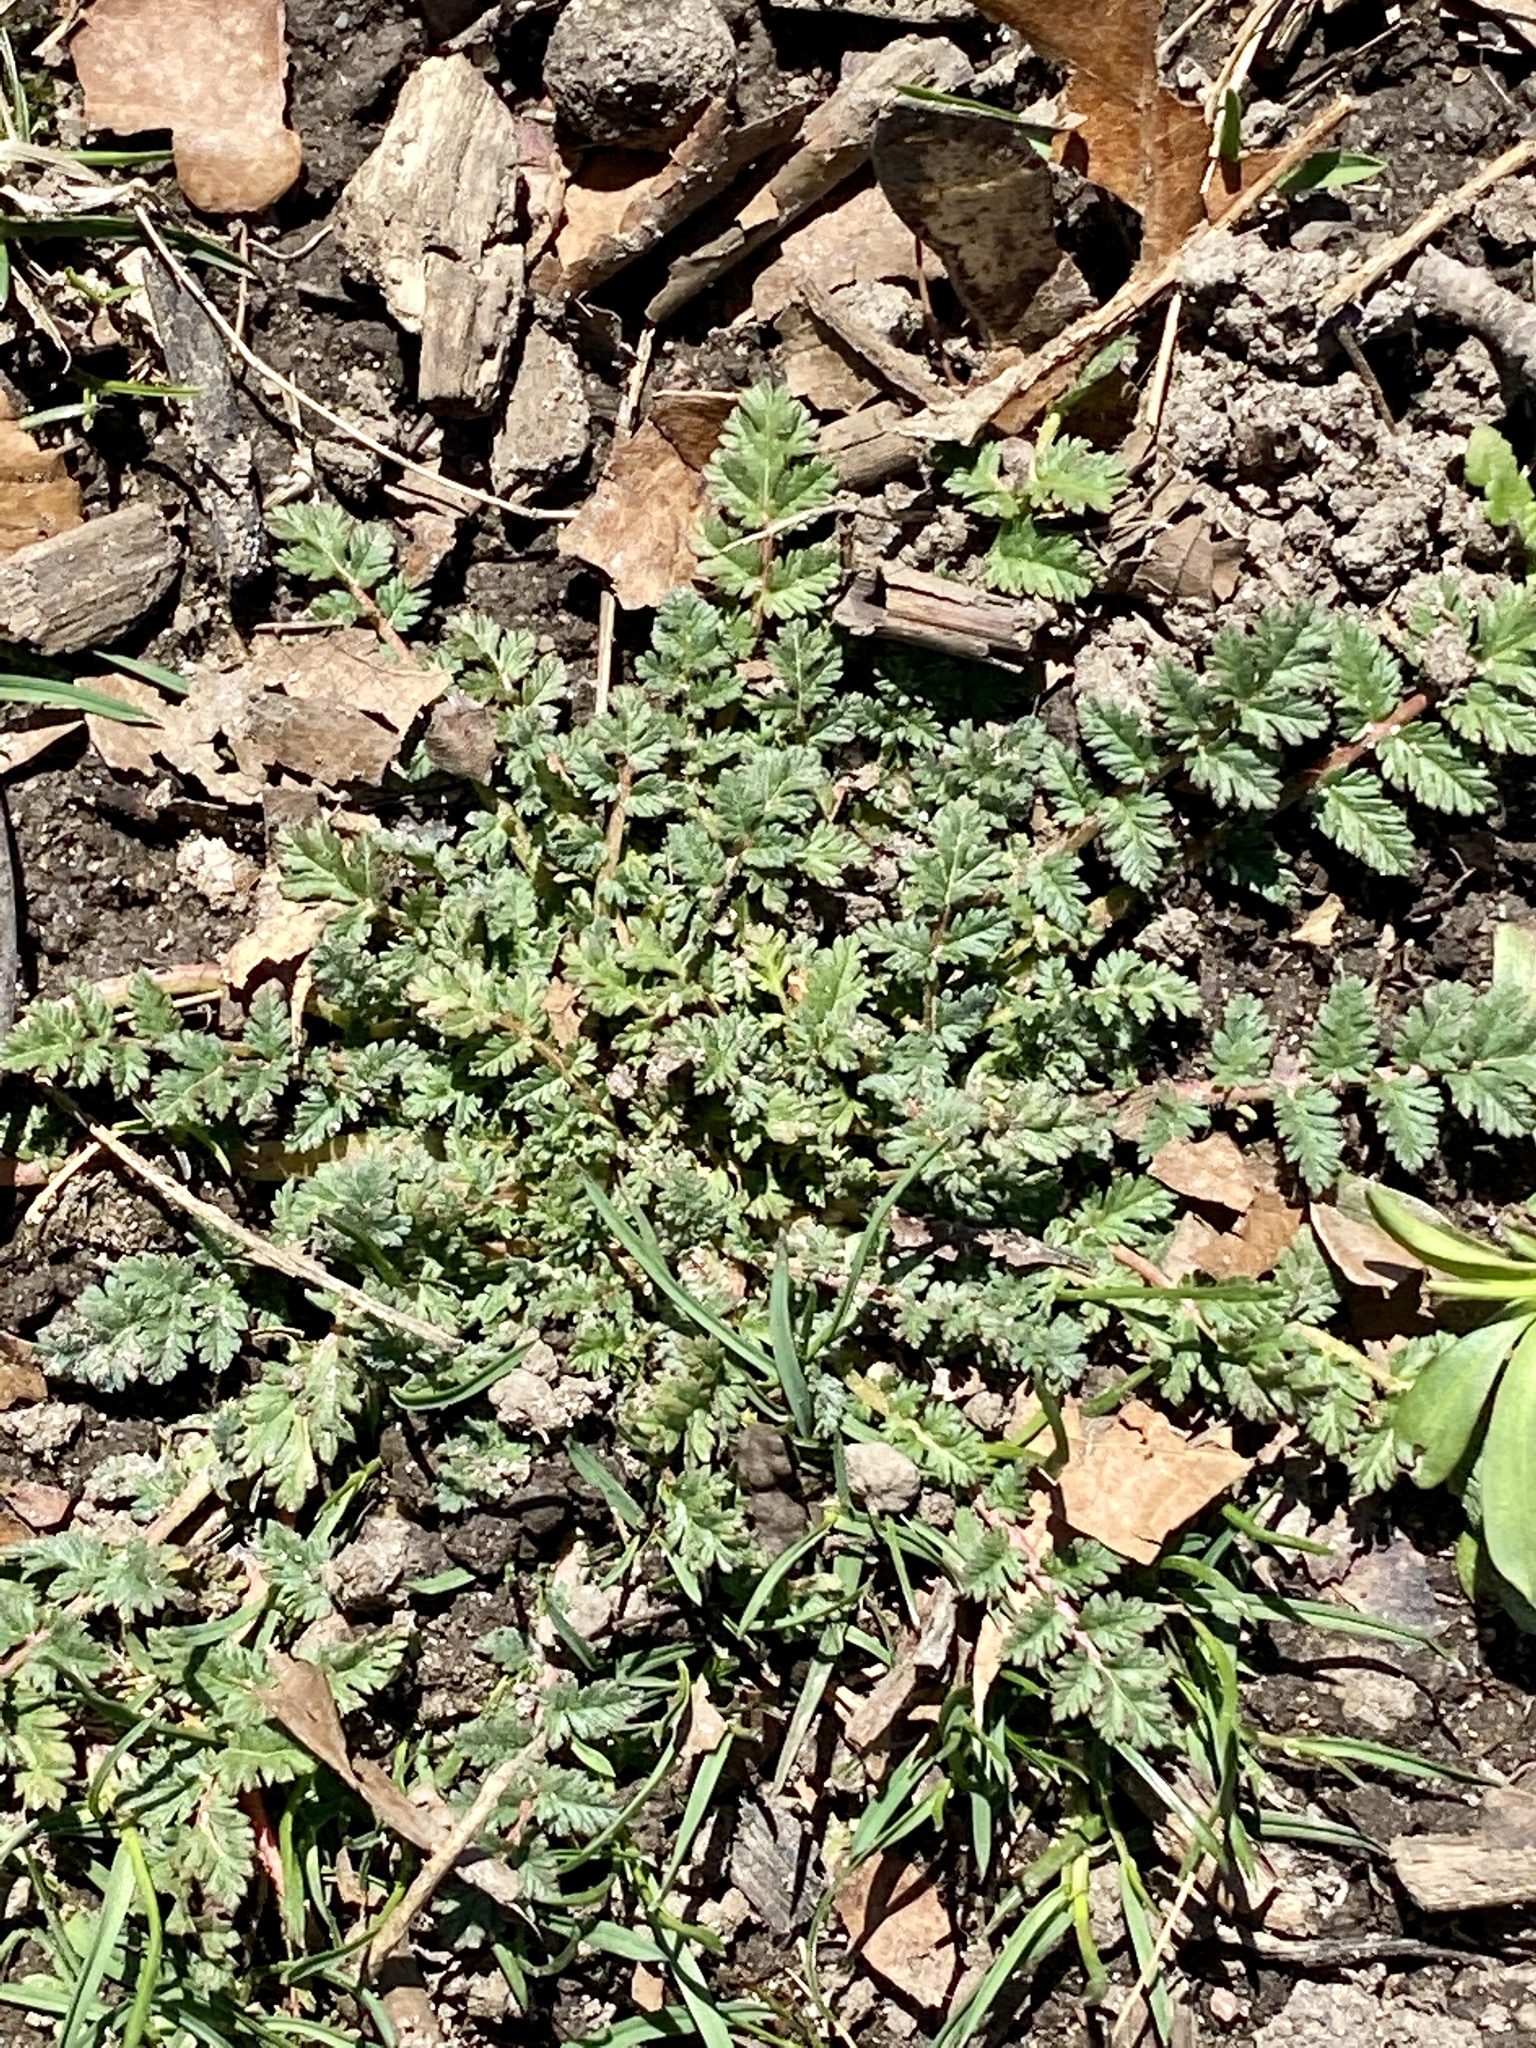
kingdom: Plantae
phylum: Tracheophyta
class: Magnoliopsida
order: Geraniales
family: Geraniaceae
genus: Erodium
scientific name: Erodium cicutarium
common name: Common stork's-bill
